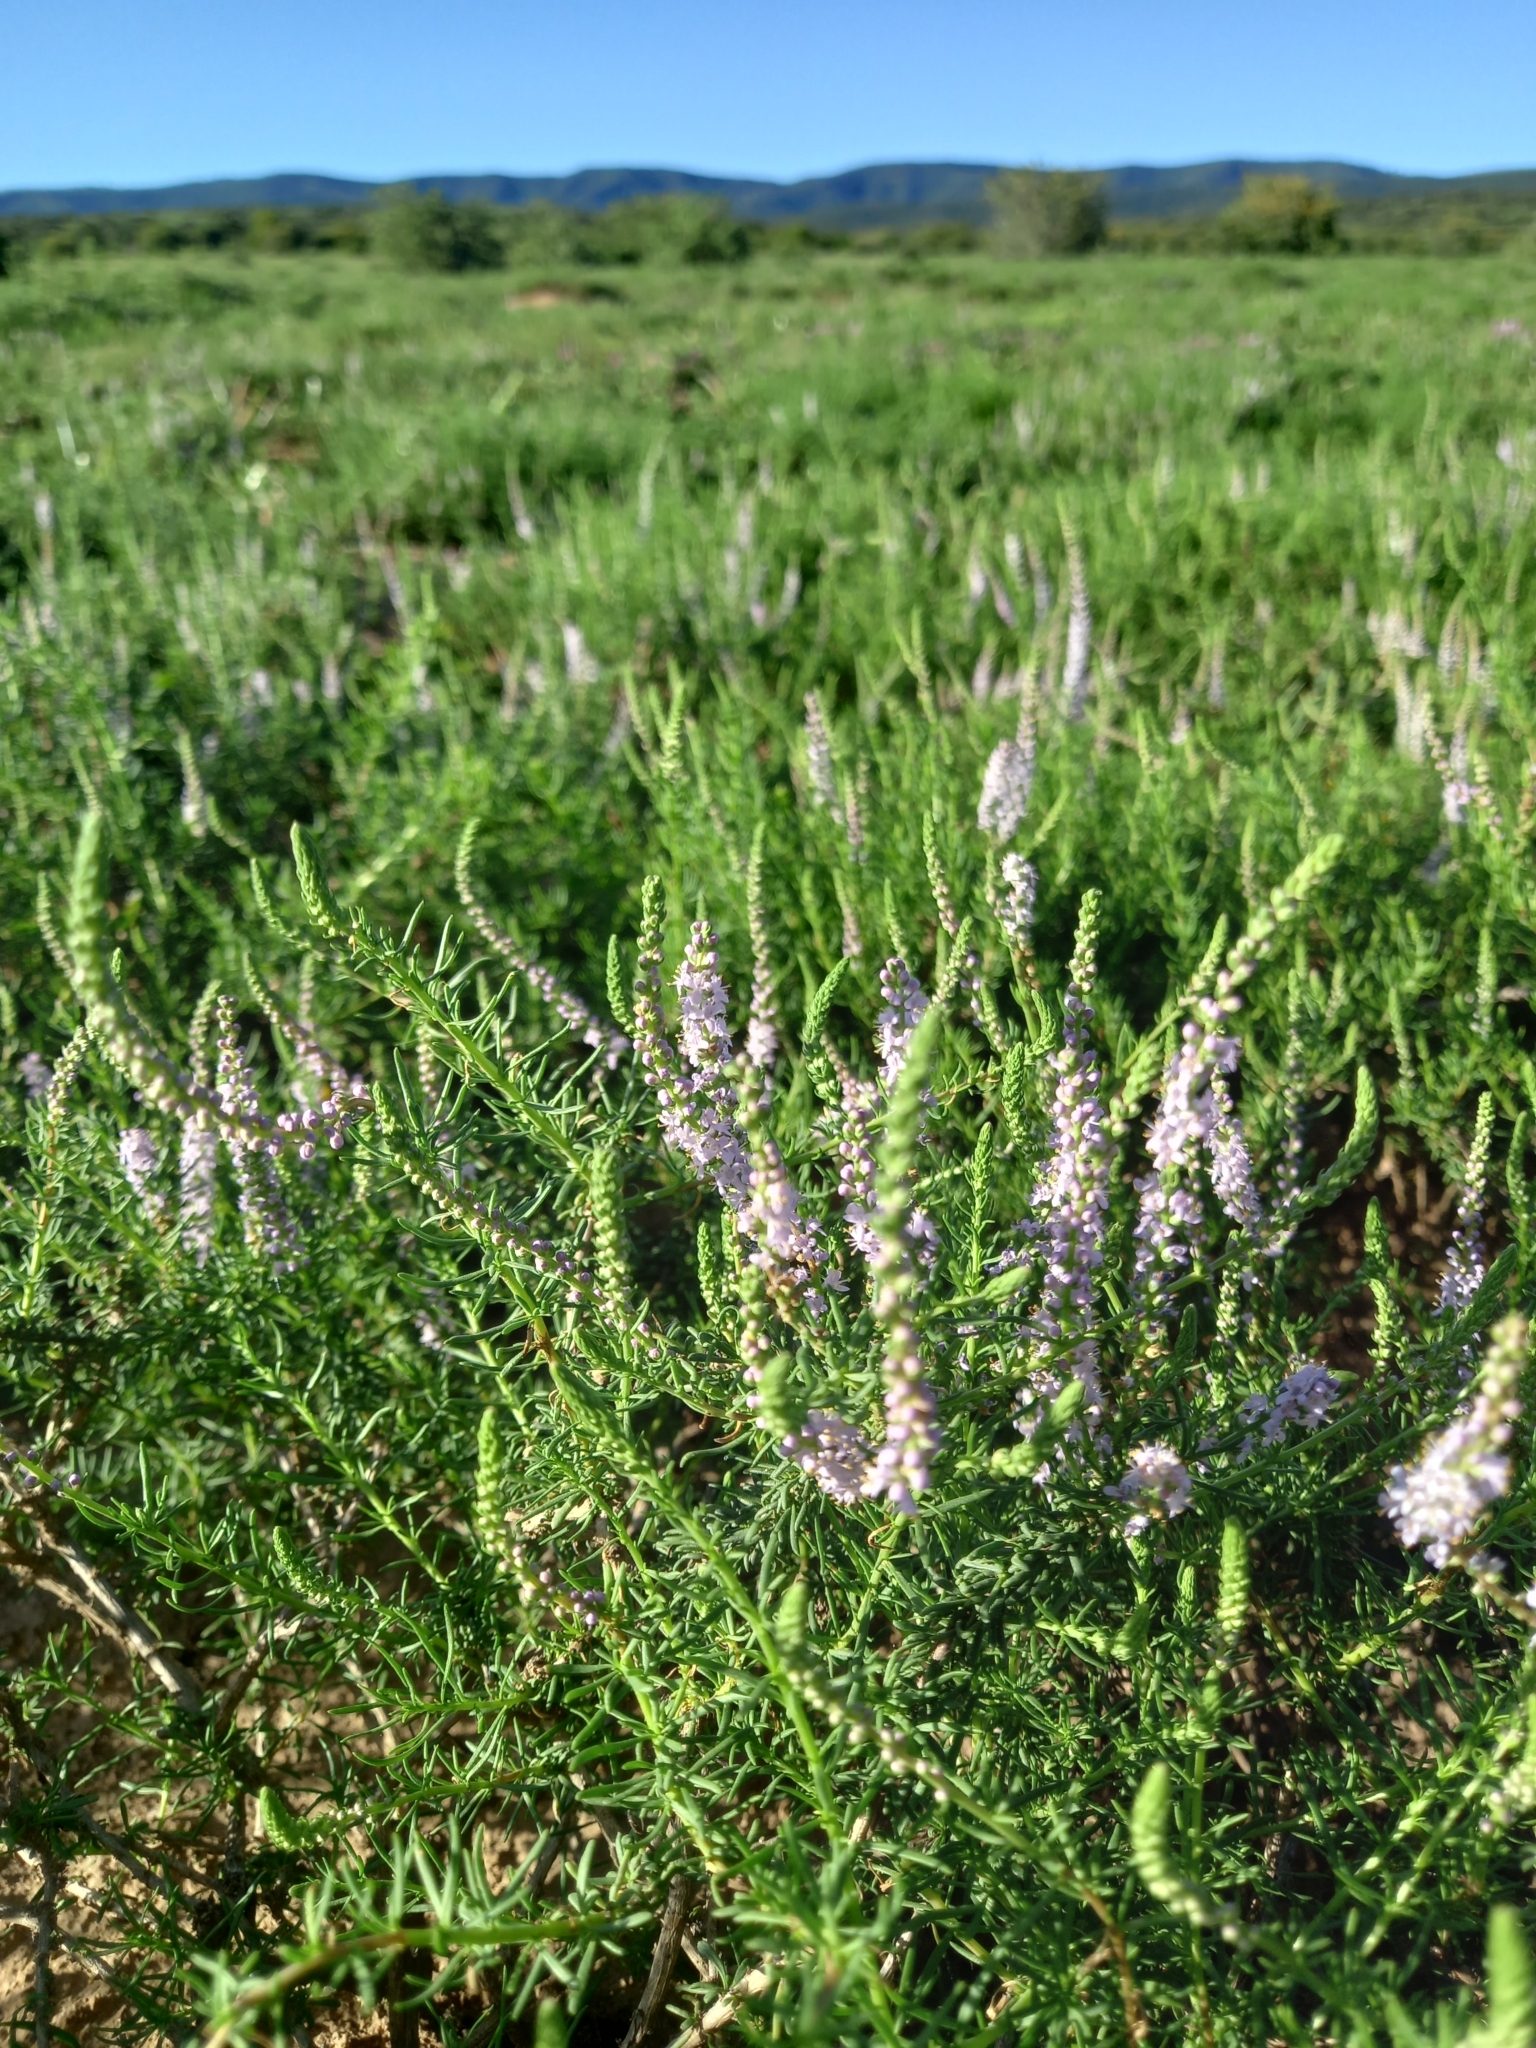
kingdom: Plantae
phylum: Tracheophyta
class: Magnoliopsida
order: Lamiales
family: Scrophulariaceae
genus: Selago
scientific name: Selago geniculata
